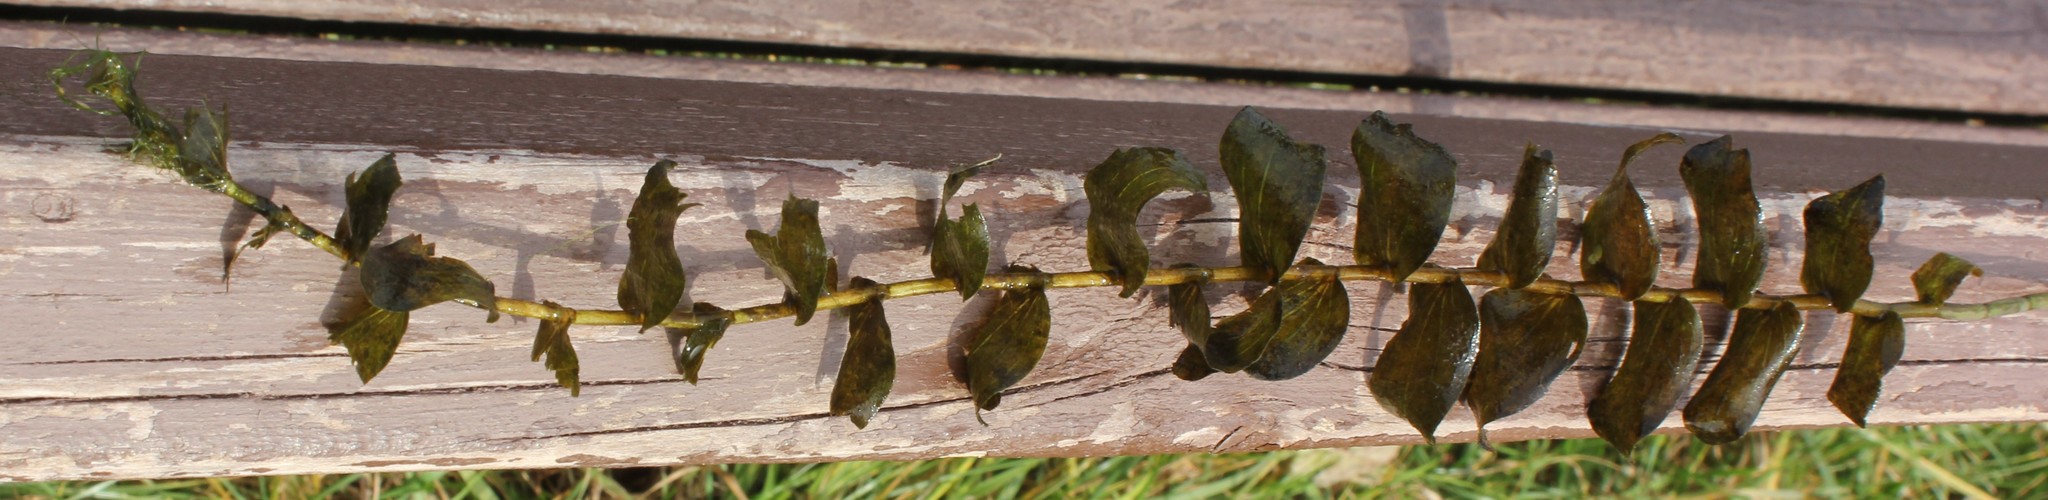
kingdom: Plantae
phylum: Tracheophyta
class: Liliopsida
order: Alismatales
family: Potamogetonaceae
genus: Potamogeton
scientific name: Potamogeton perfoliatus
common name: Perfoliate pondweed
